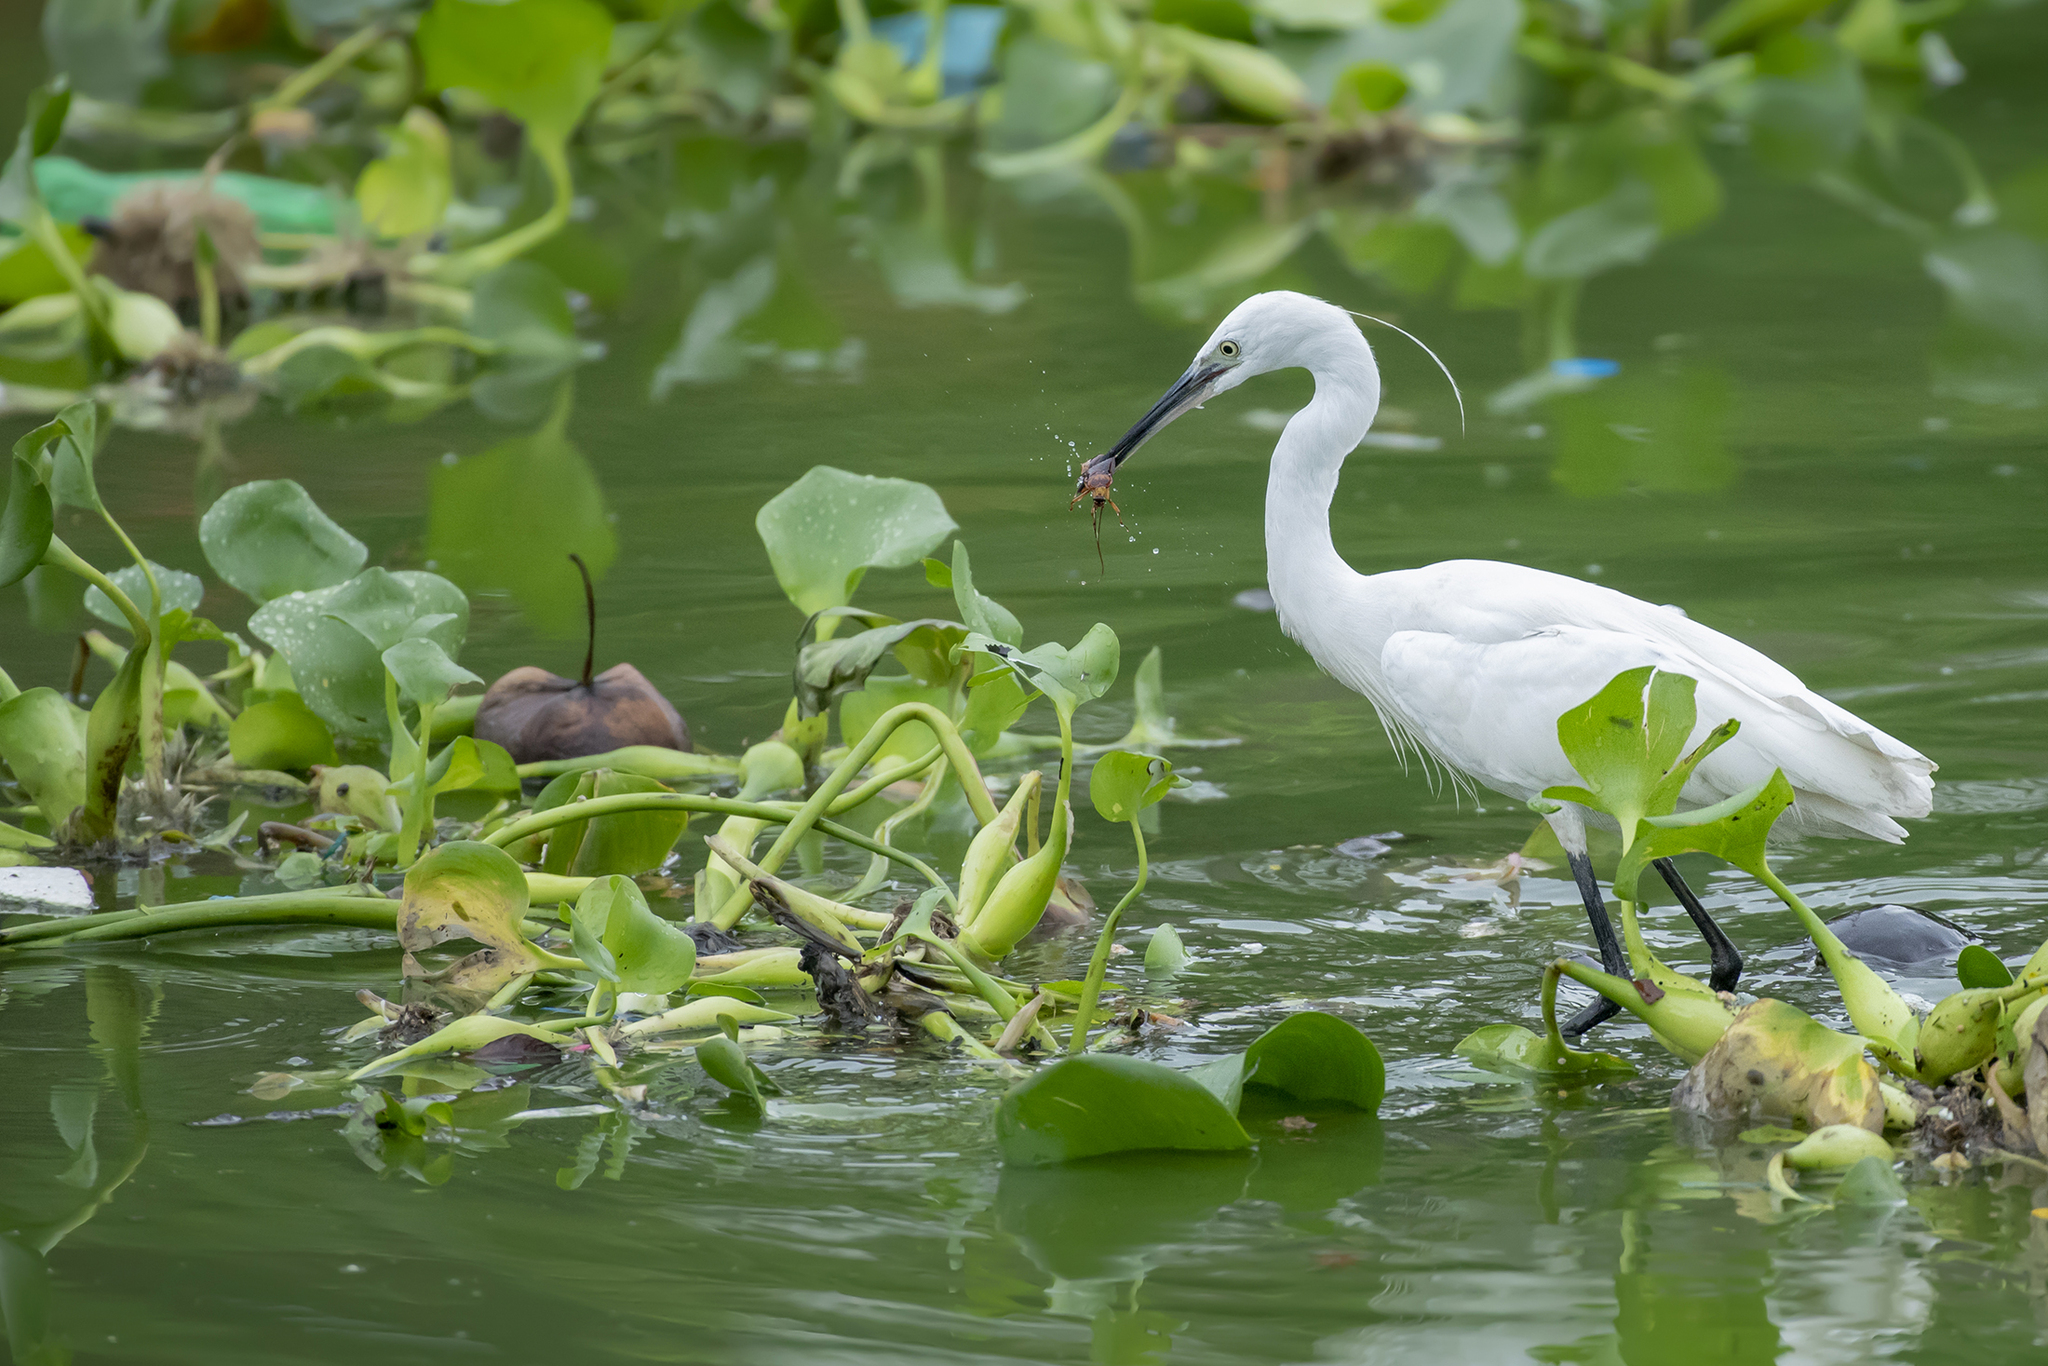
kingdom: Animalia
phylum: Chordata
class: Aves
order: Pelecaniformes
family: Ardeidae
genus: Egretta
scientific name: Egretta garzetta
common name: Little egret
